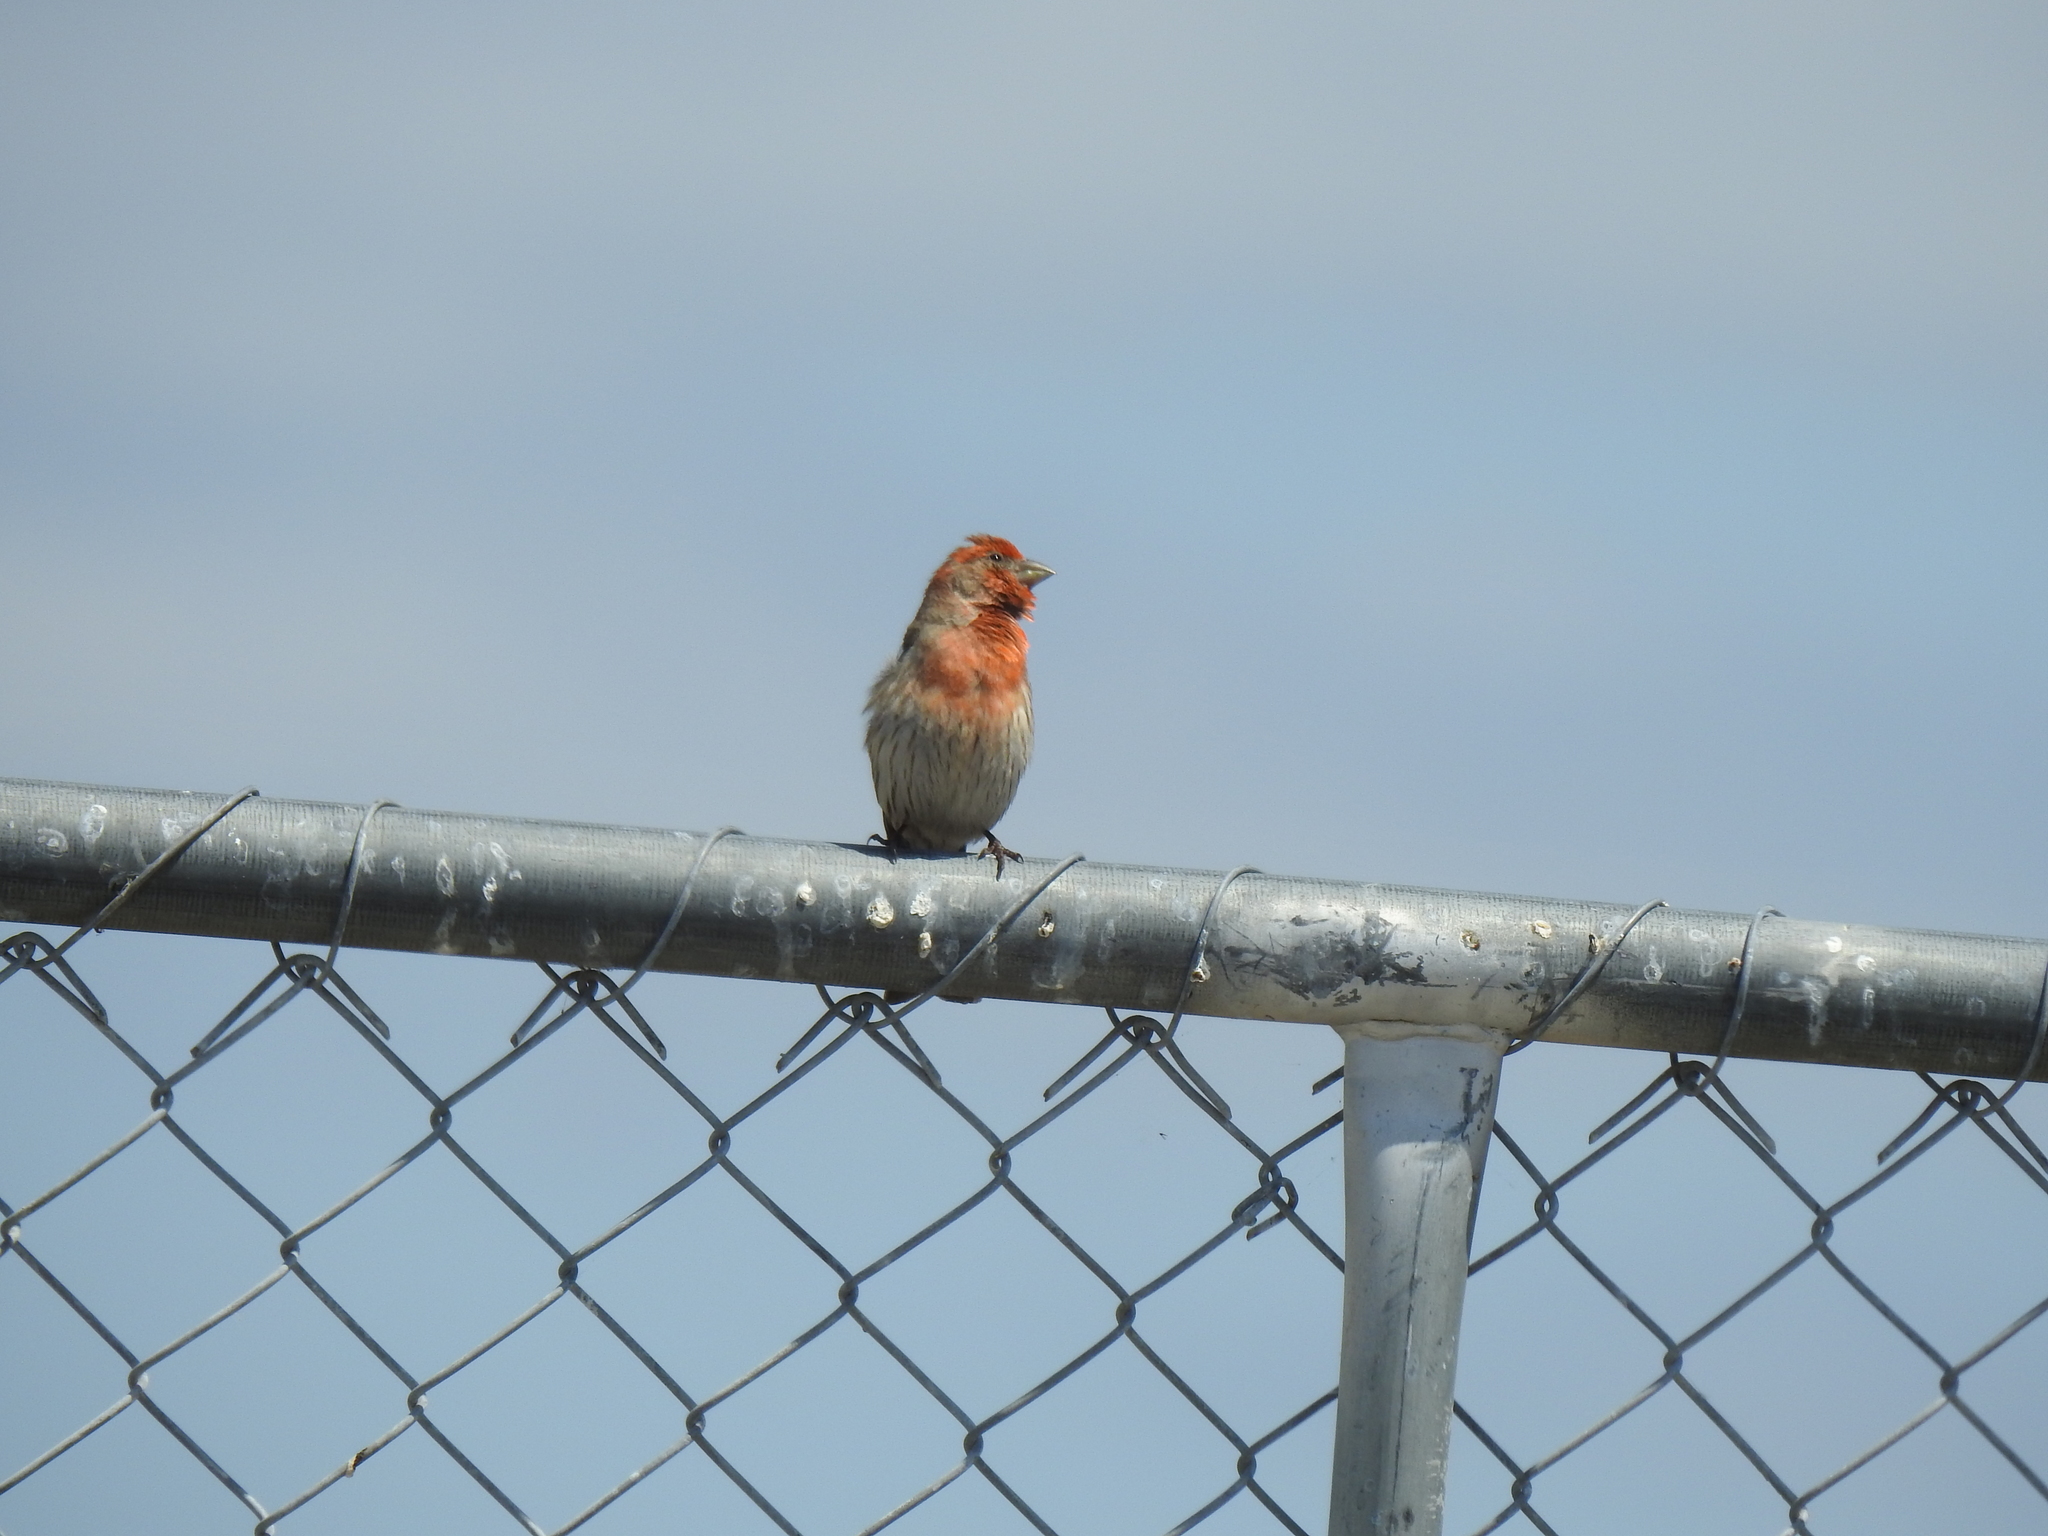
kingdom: Animalia
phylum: Chordata
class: Aves
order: Passeriformes
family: Fringillidae
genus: Haemorhous
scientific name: Haemorhous mexicanus
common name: House finch
